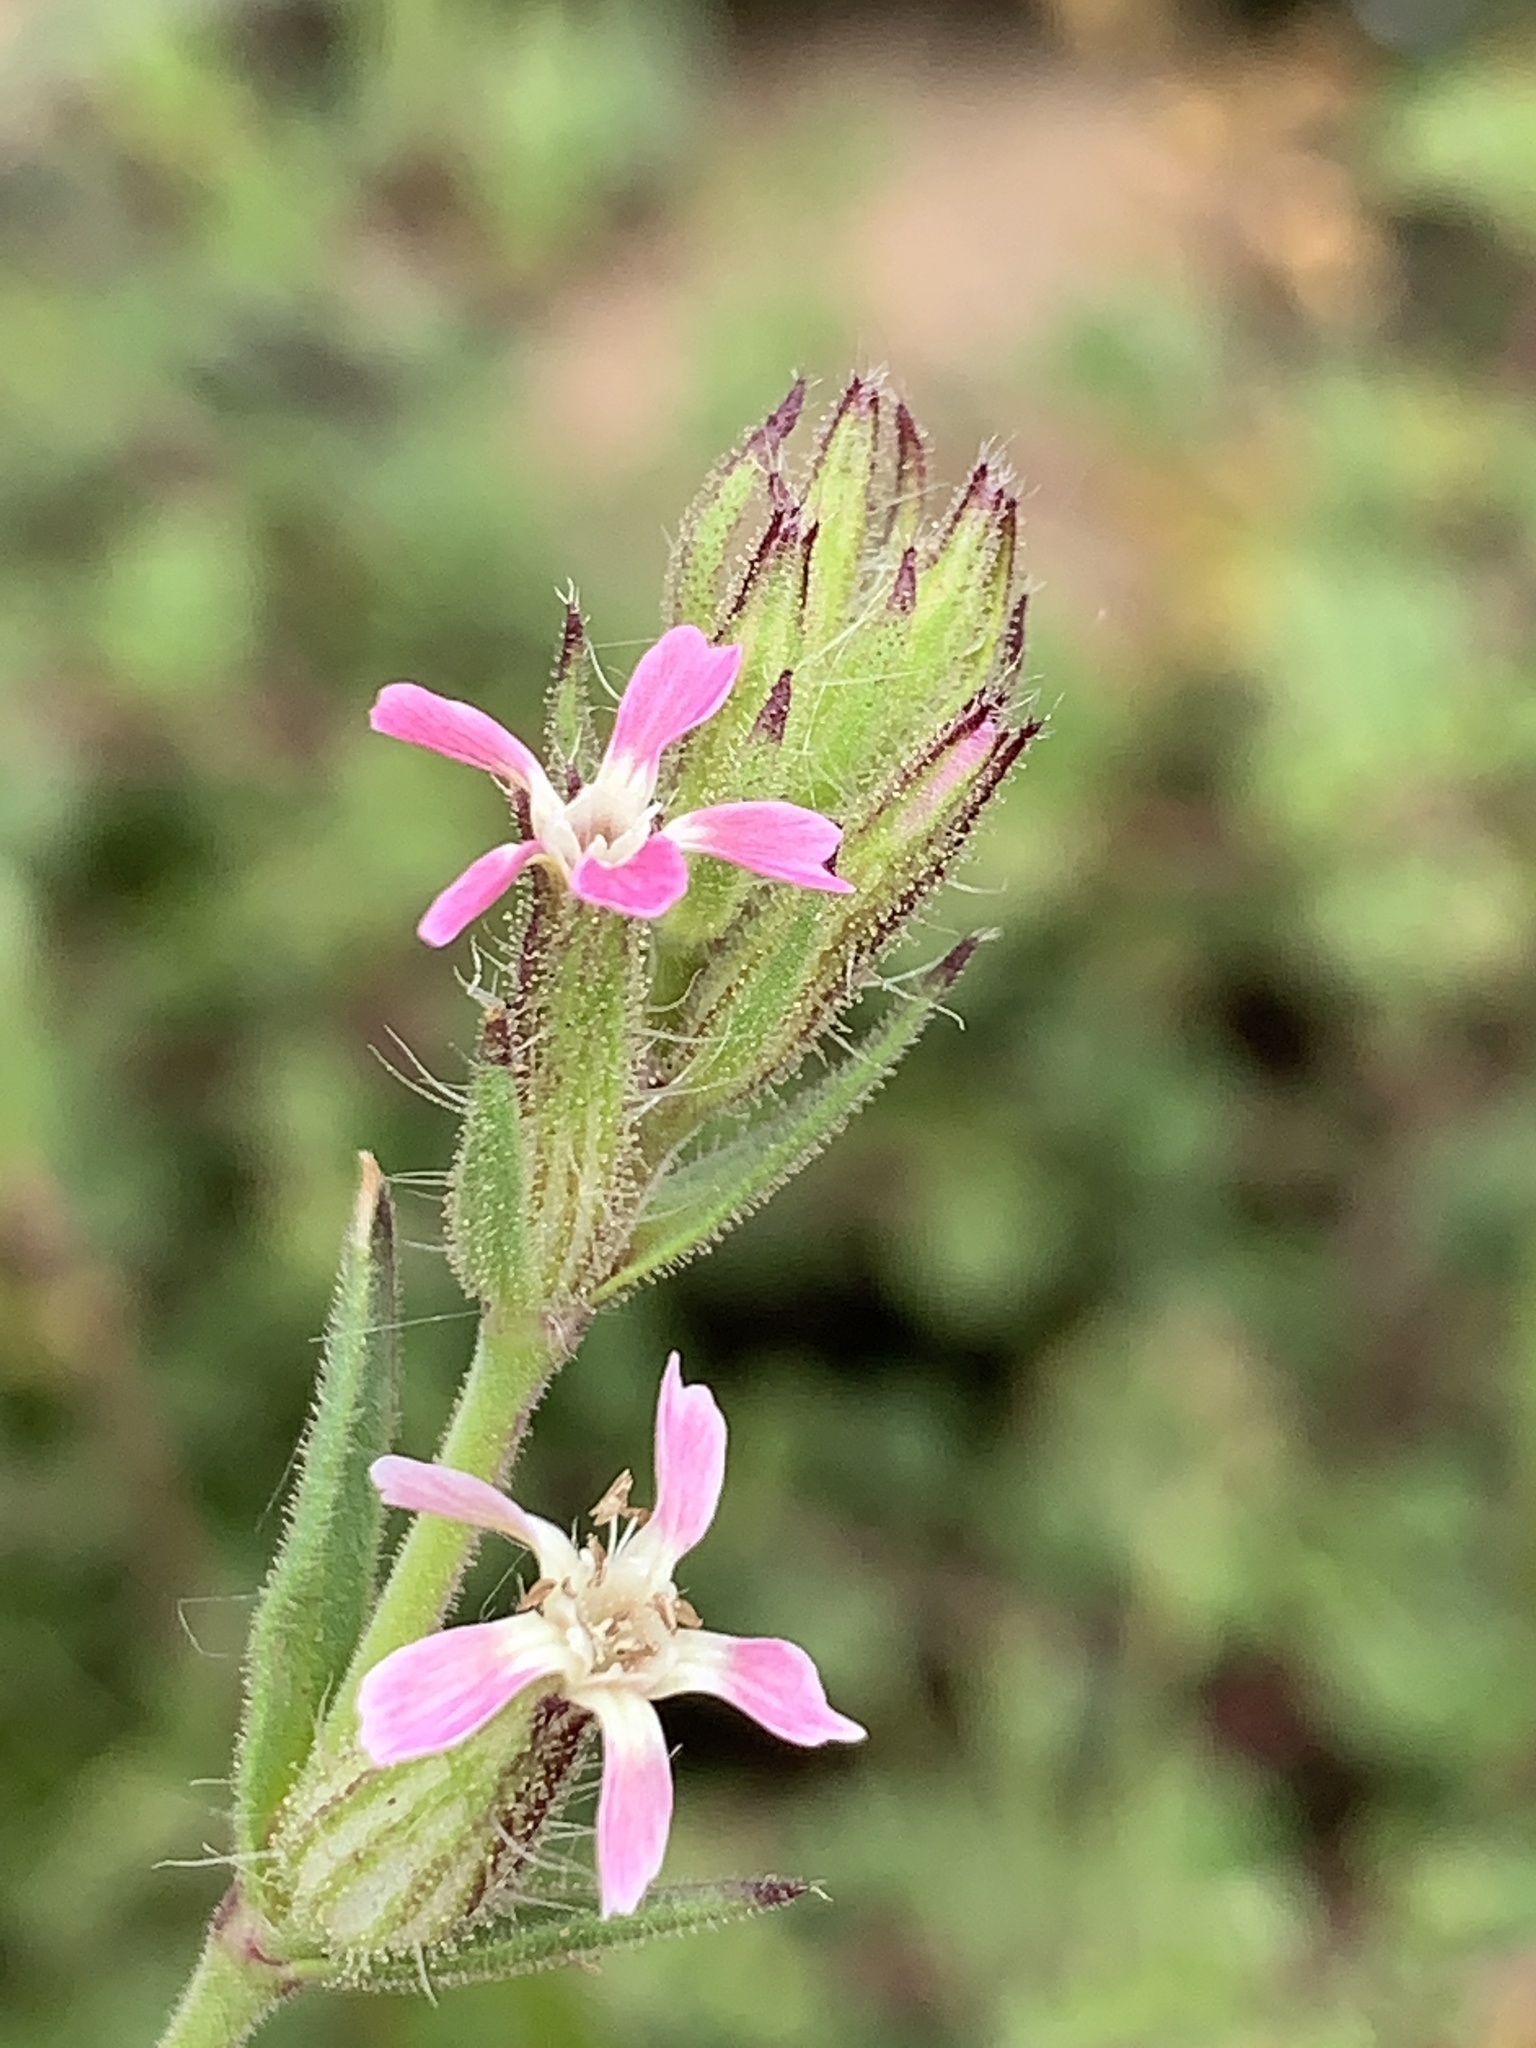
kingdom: Plantae
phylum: Tracheophyta
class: Magnoliopsida
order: Caryophyllales
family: Caryophyllaceae
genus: Silene
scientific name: Silene gallica
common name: Small-flowered catchfly
